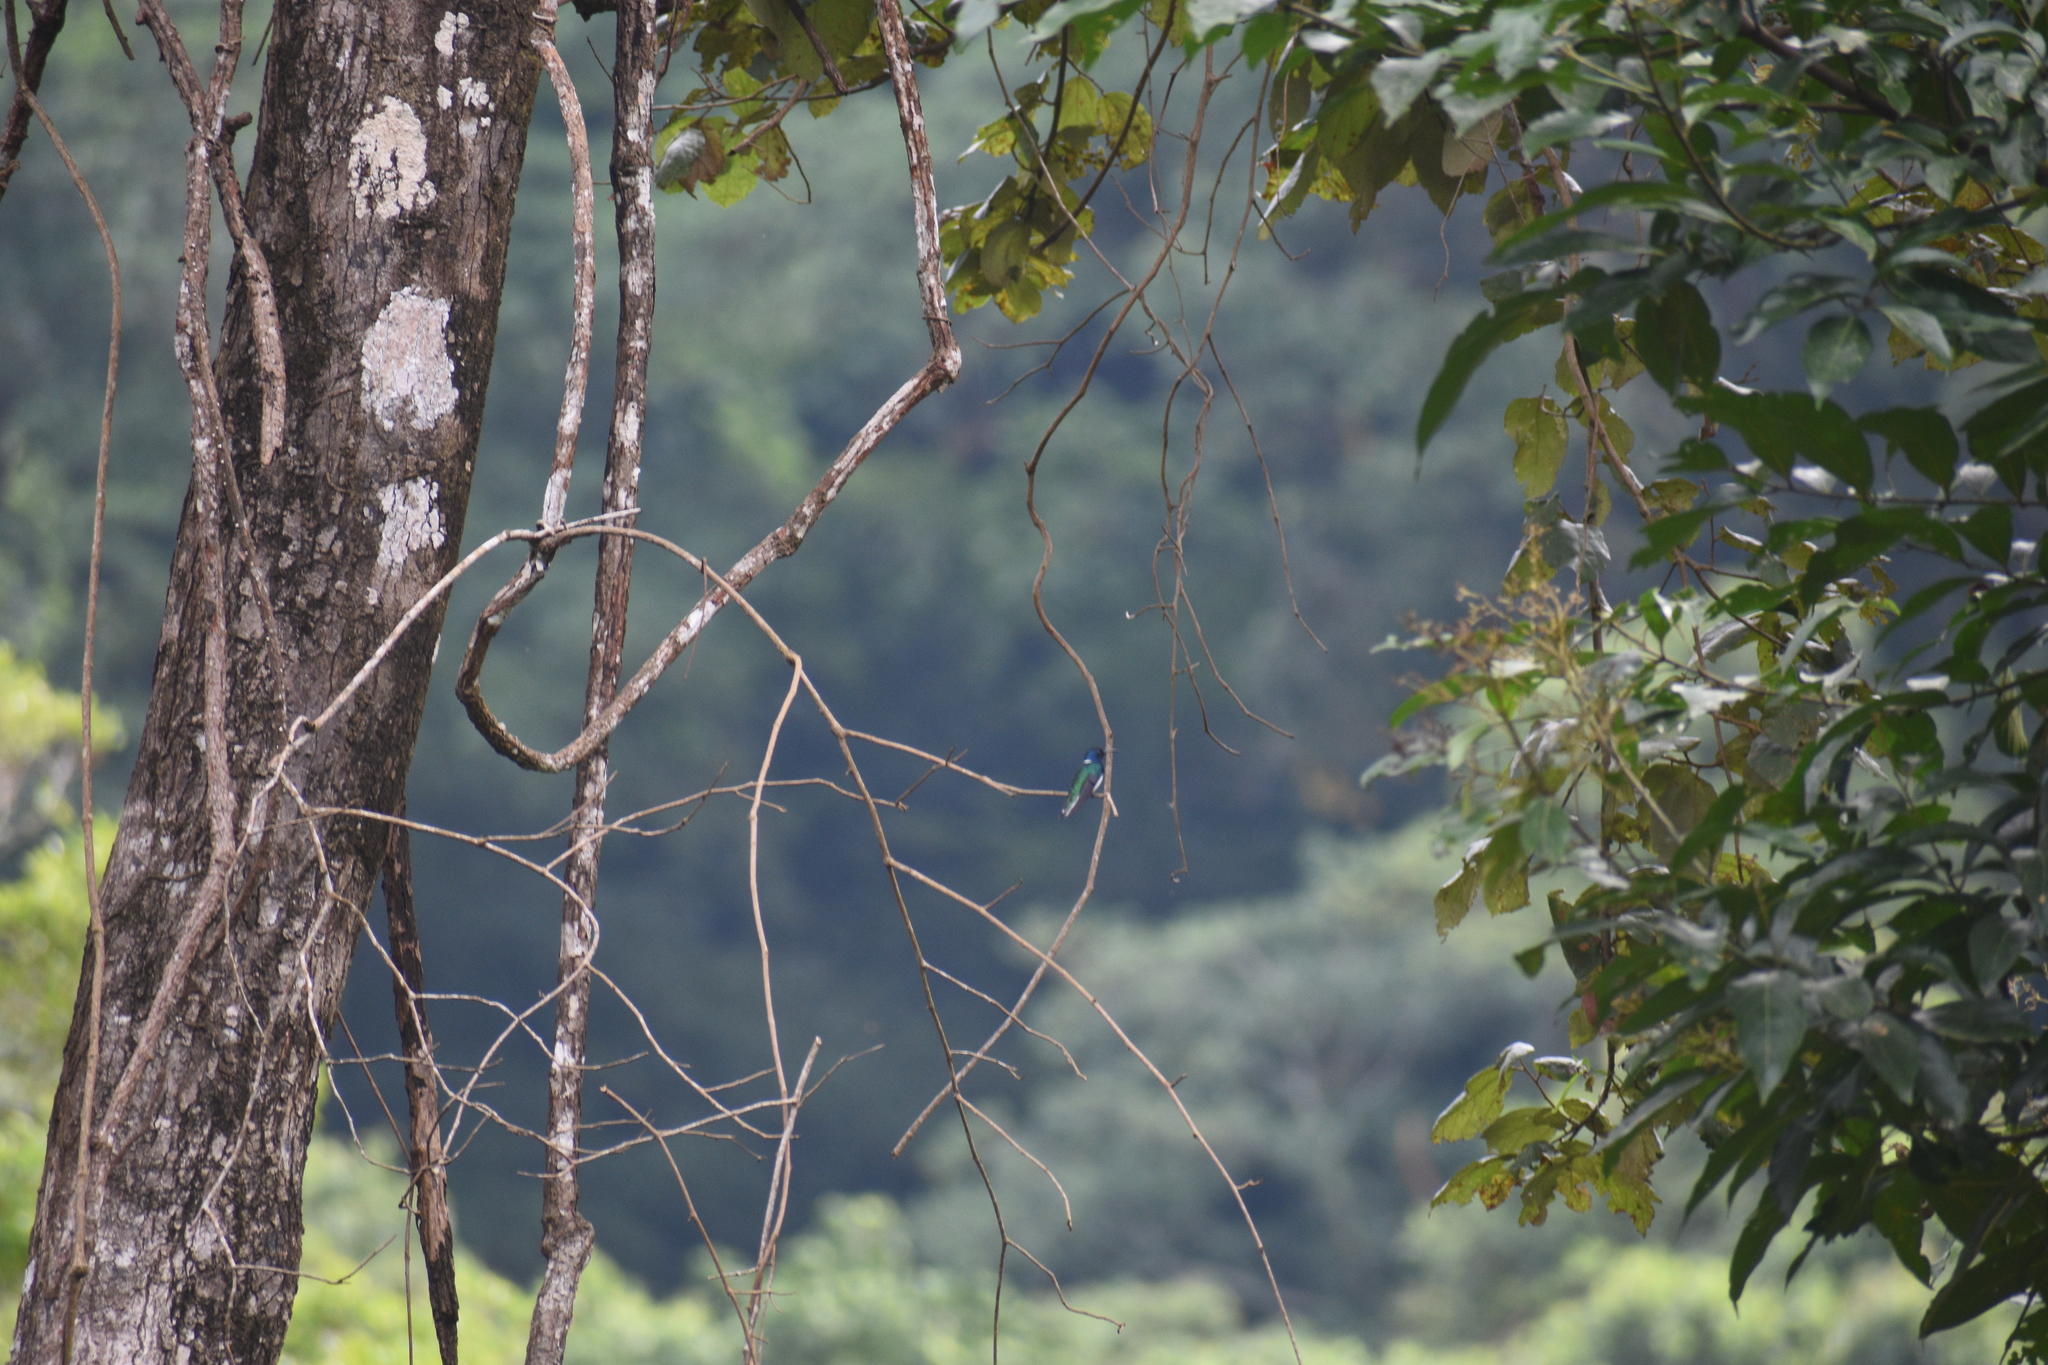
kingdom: Animalia
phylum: Chordata
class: Aves
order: Apodiformes
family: Trochilidae
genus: Florisuga
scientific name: Florisuga mellivora
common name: White-necked jacobin
